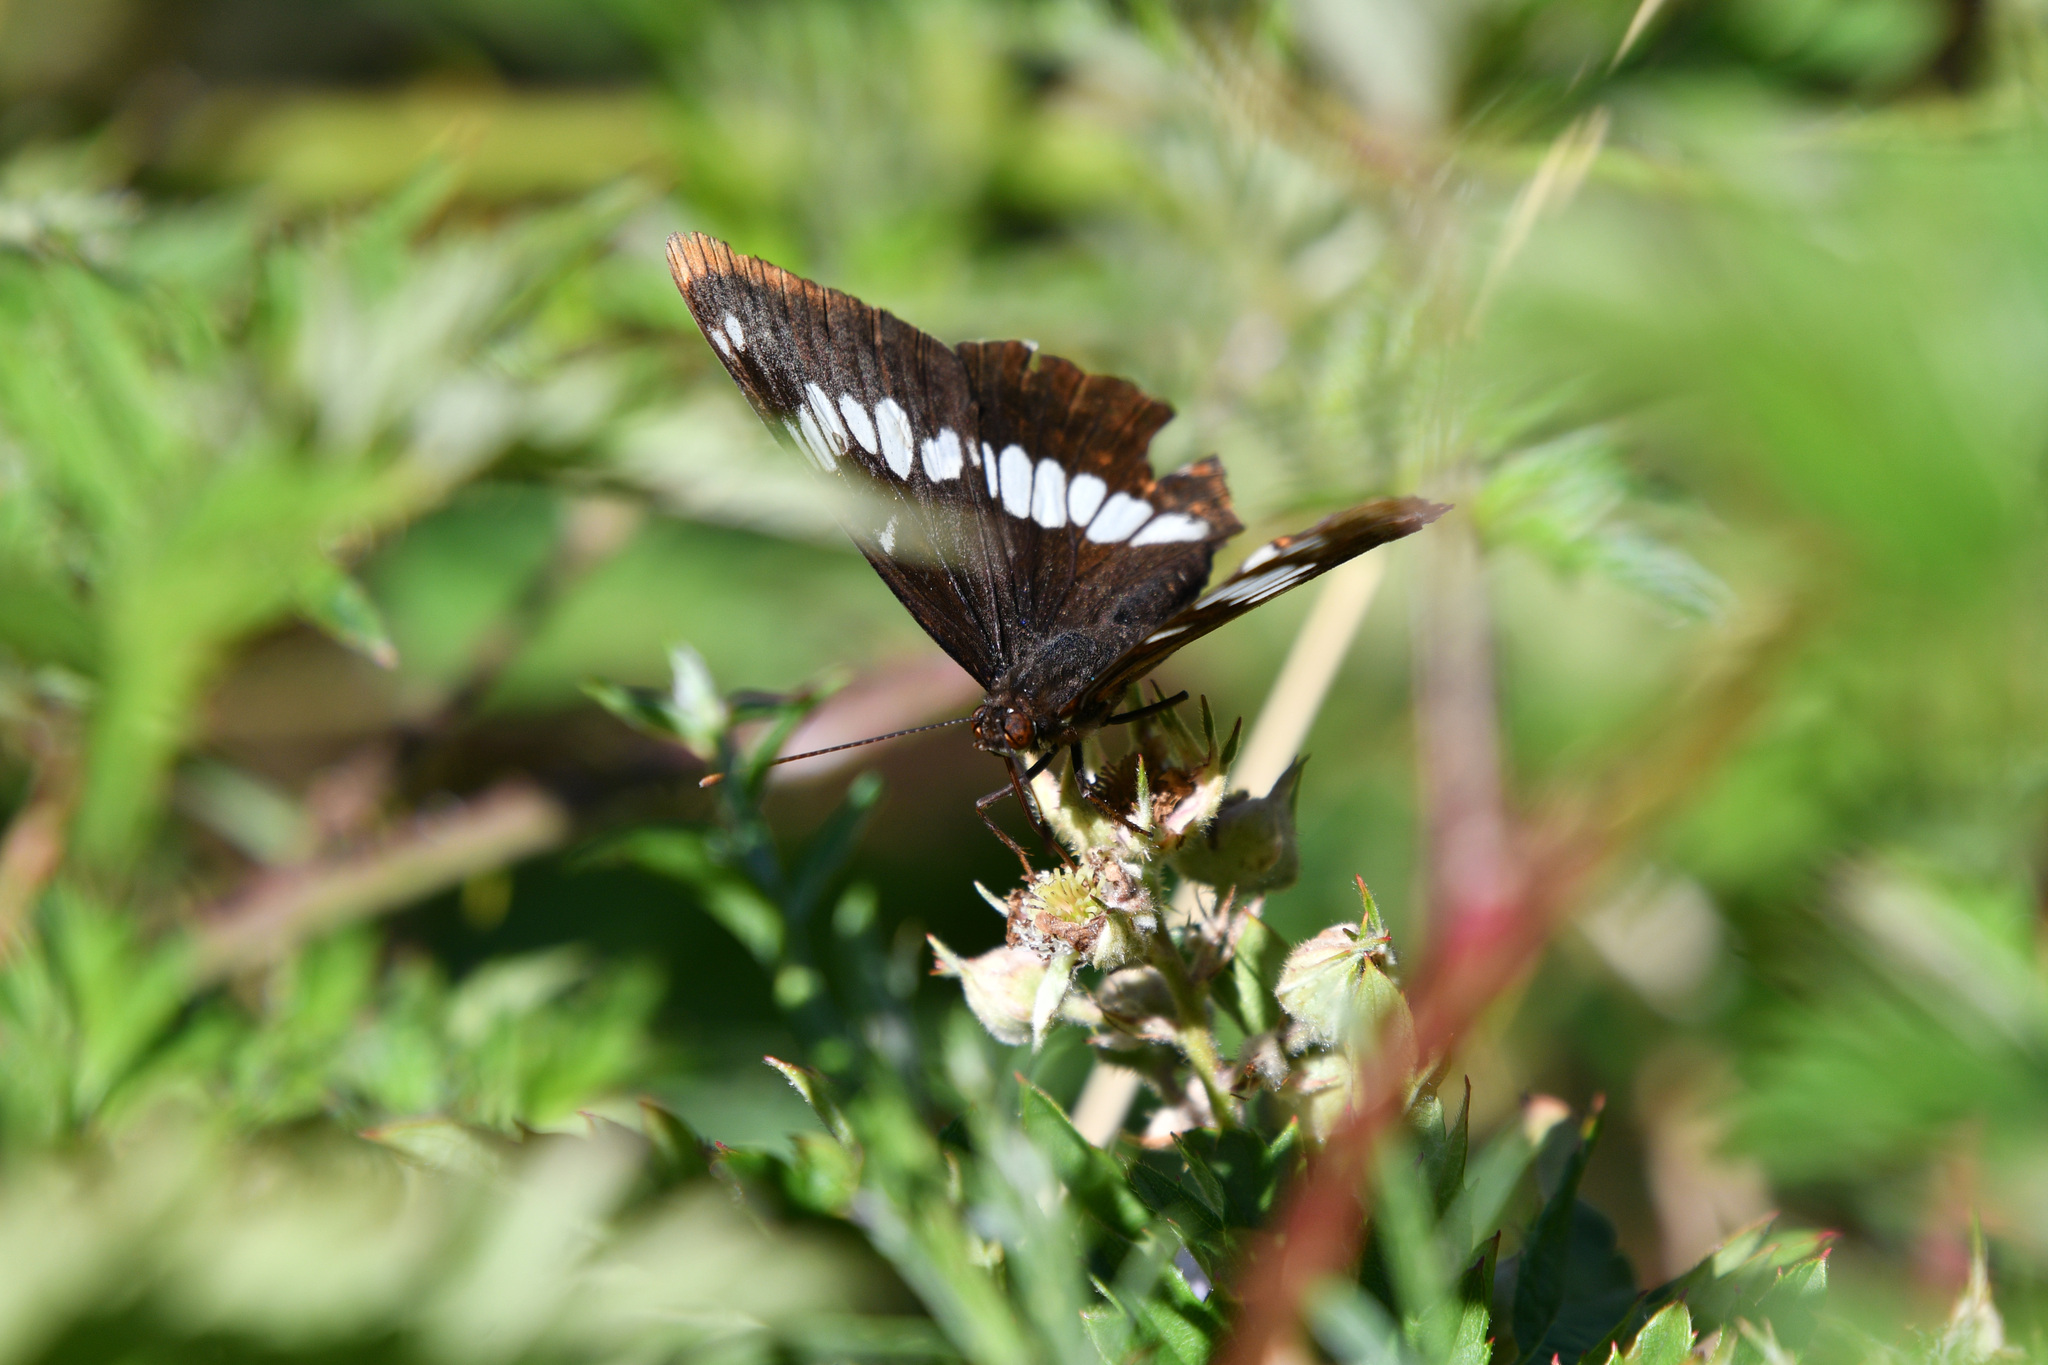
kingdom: Animalia
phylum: Arthropoda
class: Insecta
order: Lepidoptera
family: Nymphalidae
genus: Limenitis
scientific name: Limenitis lorquini
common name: Lorquin's admiral
